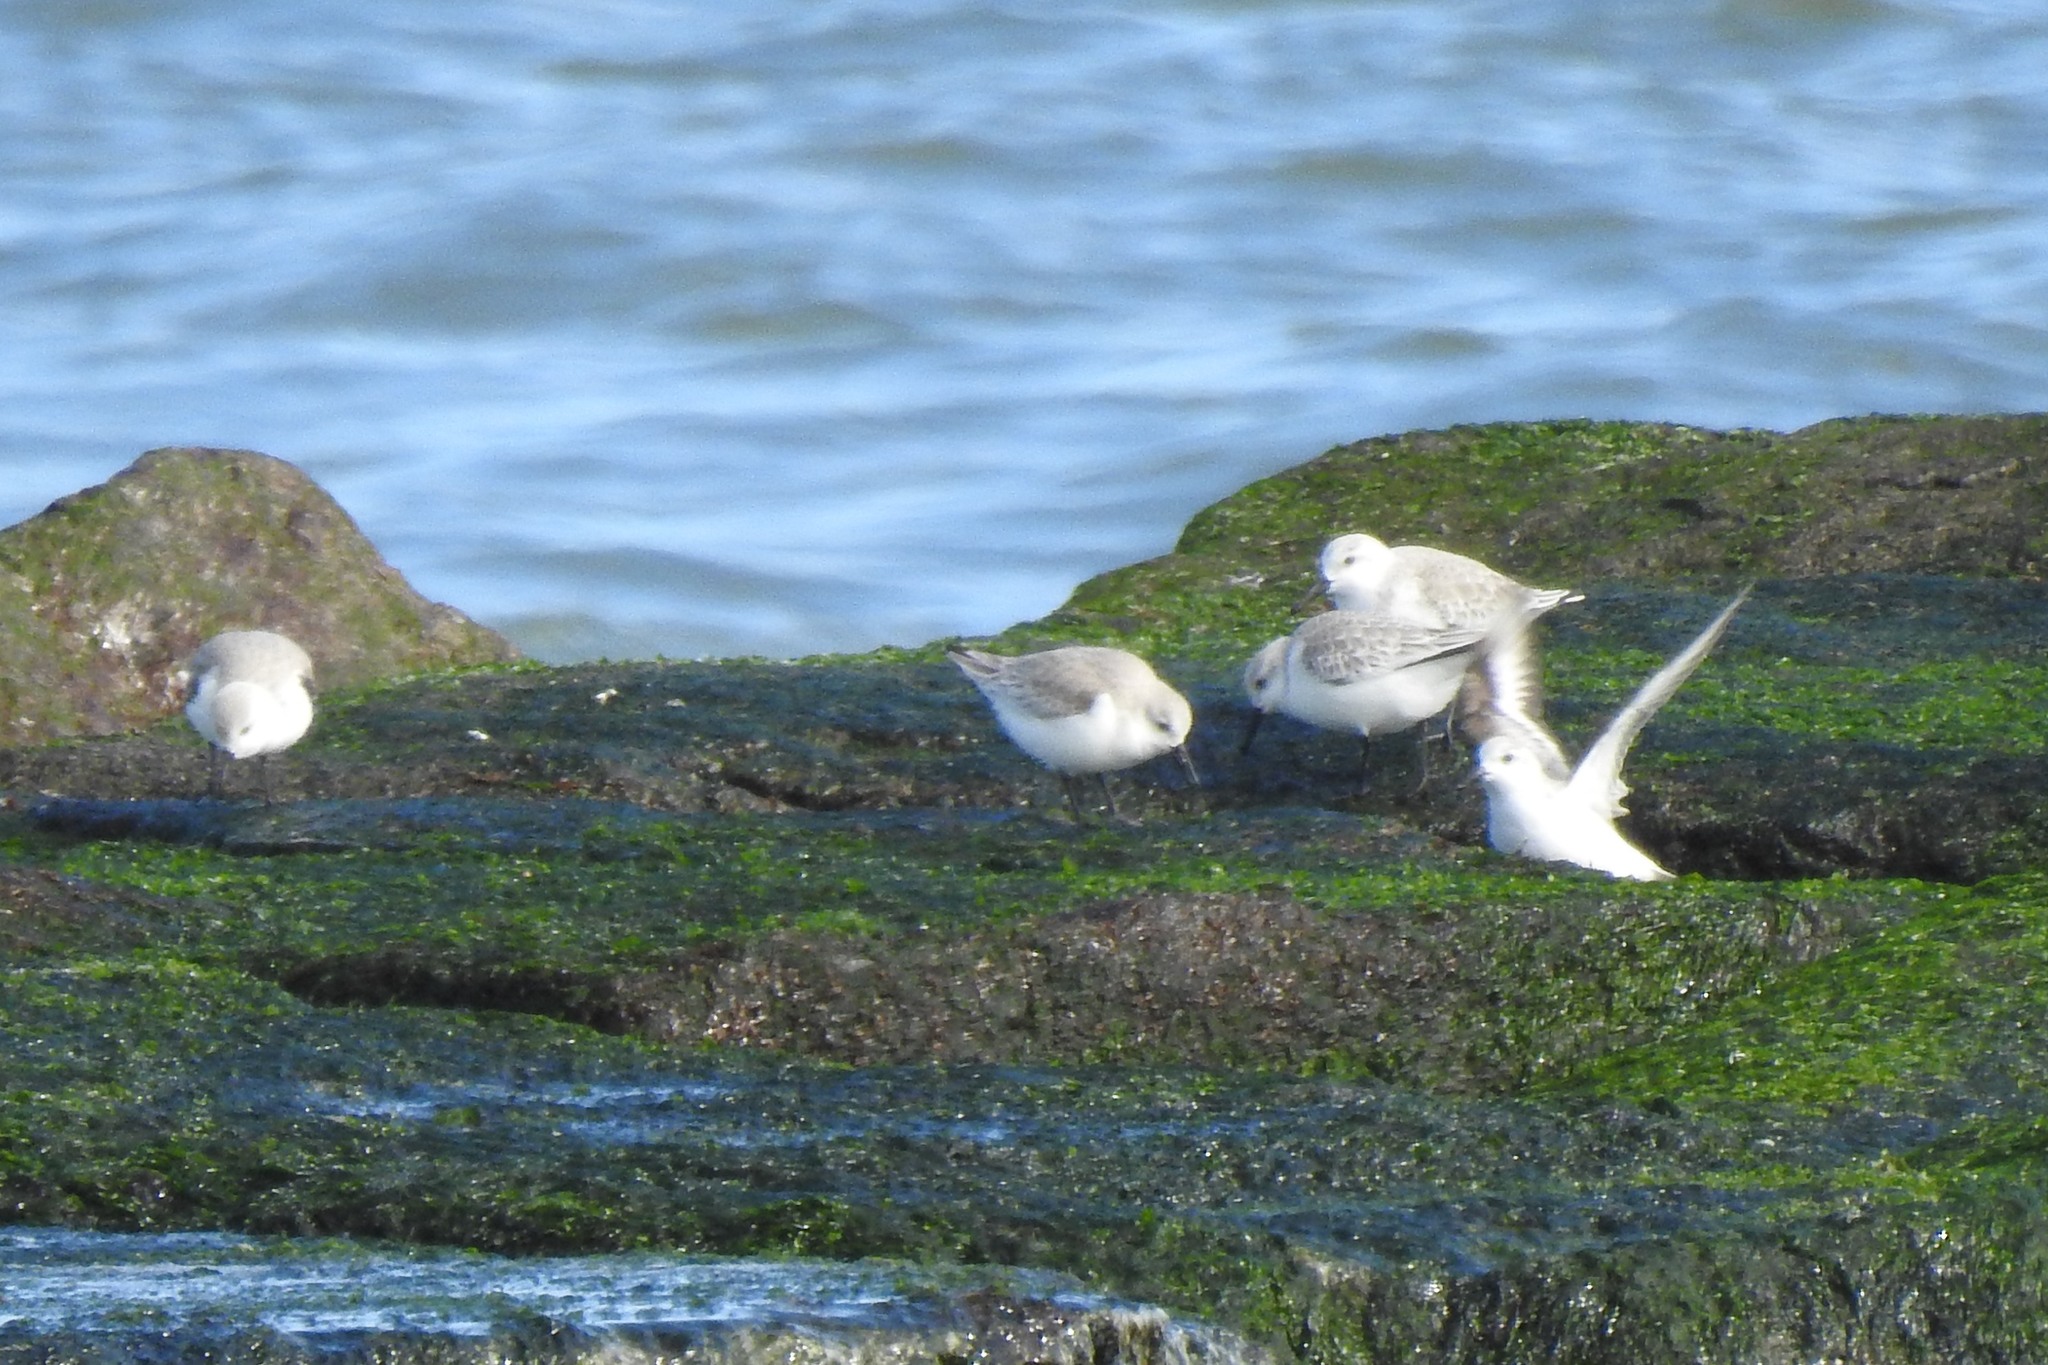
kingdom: Animalia
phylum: Chordata
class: Aves
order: Charadriiformes
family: Scolopacidae
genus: Calidris
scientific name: Calidris alba
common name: Sanderling
